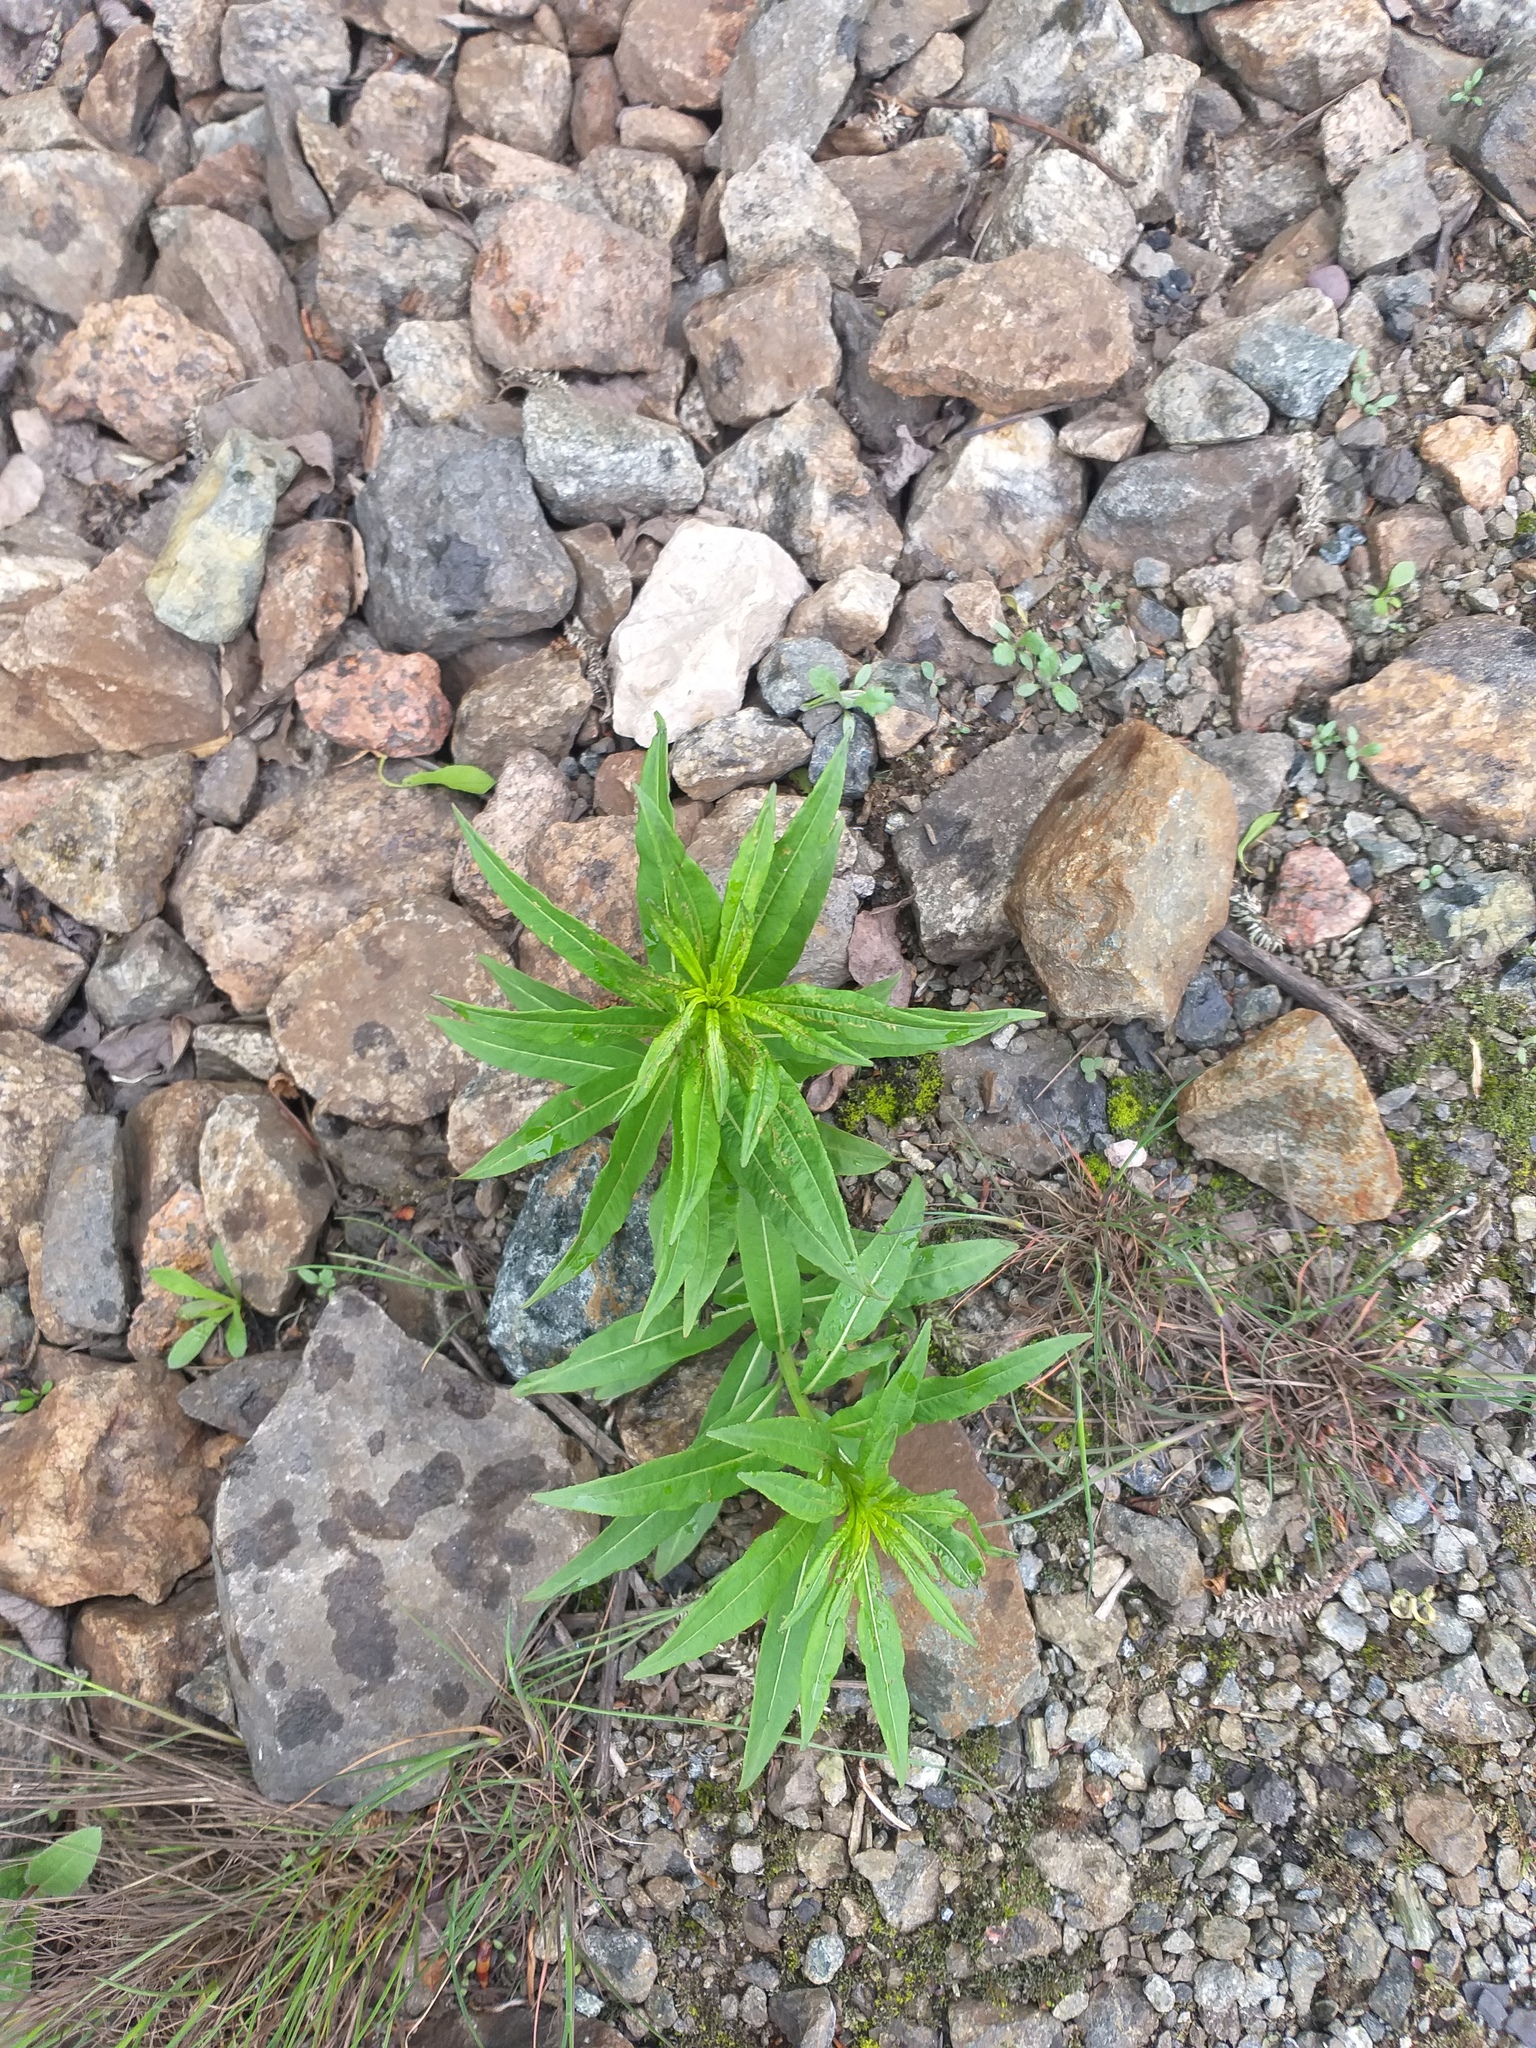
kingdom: Plantae
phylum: Tracheophyta
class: Magnoliopsida
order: Myrtales
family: Onagraceae
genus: Chamaenerion
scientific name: Chamaenerion angustifolium
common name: Fireweed
